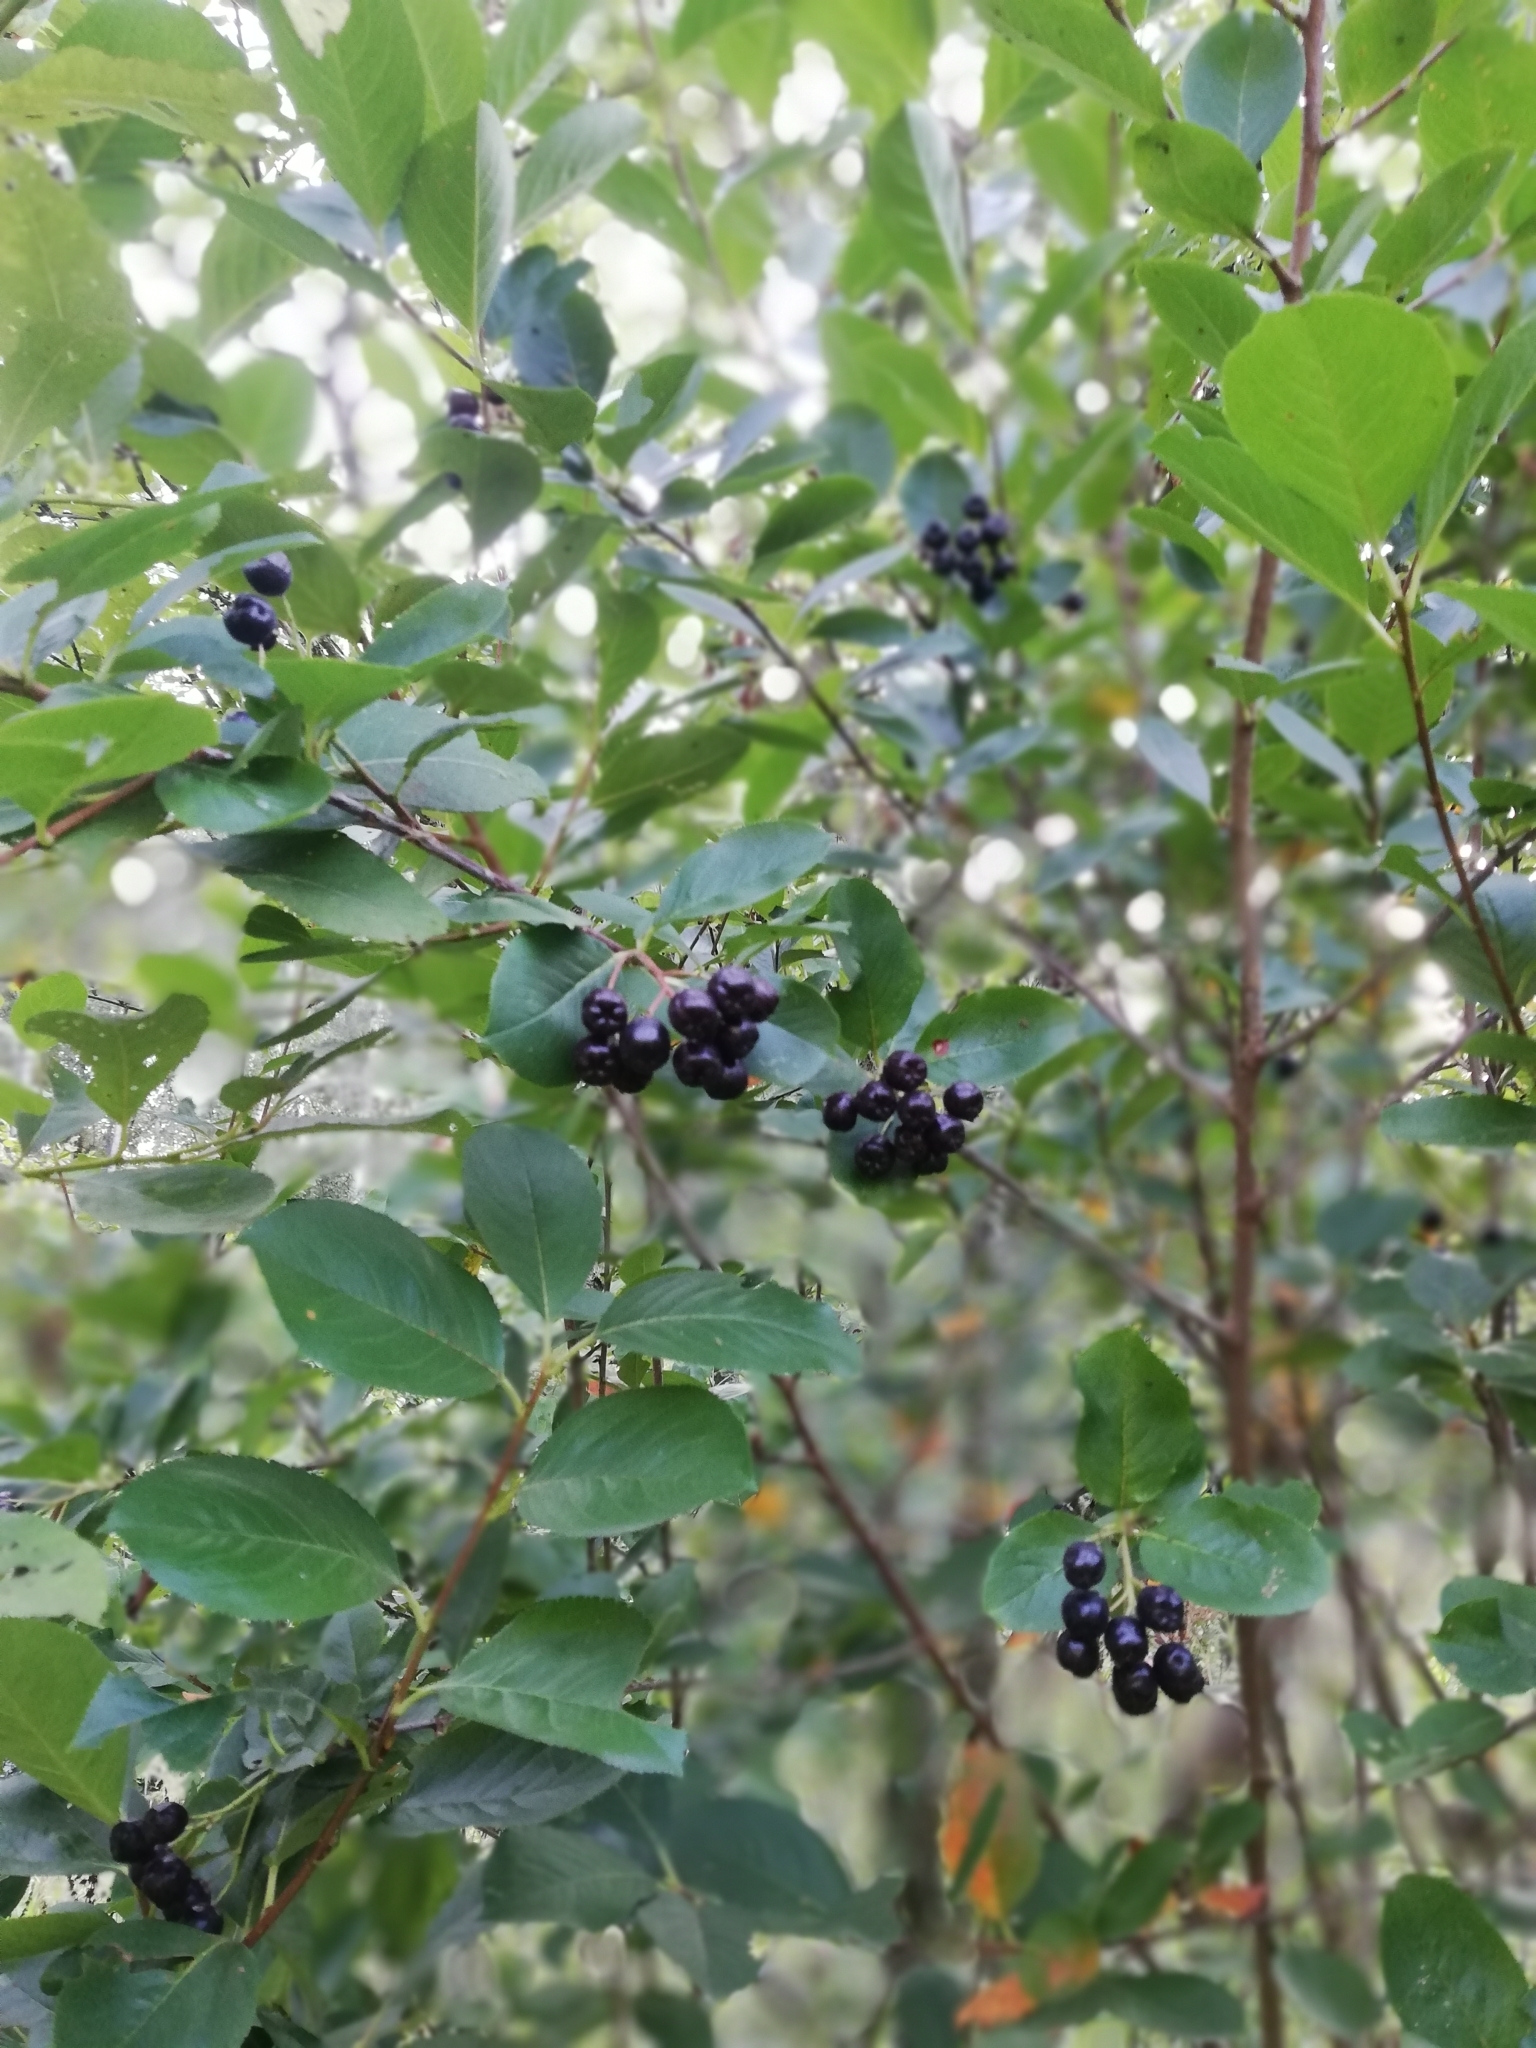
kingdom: Plantae
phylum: Tracheophyta
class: Magnoliopsida
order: Rosales
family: Rosaceae
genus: Sorbaronia
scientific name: Sorbaronia arsenii
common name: Arsène's mountain-ash
